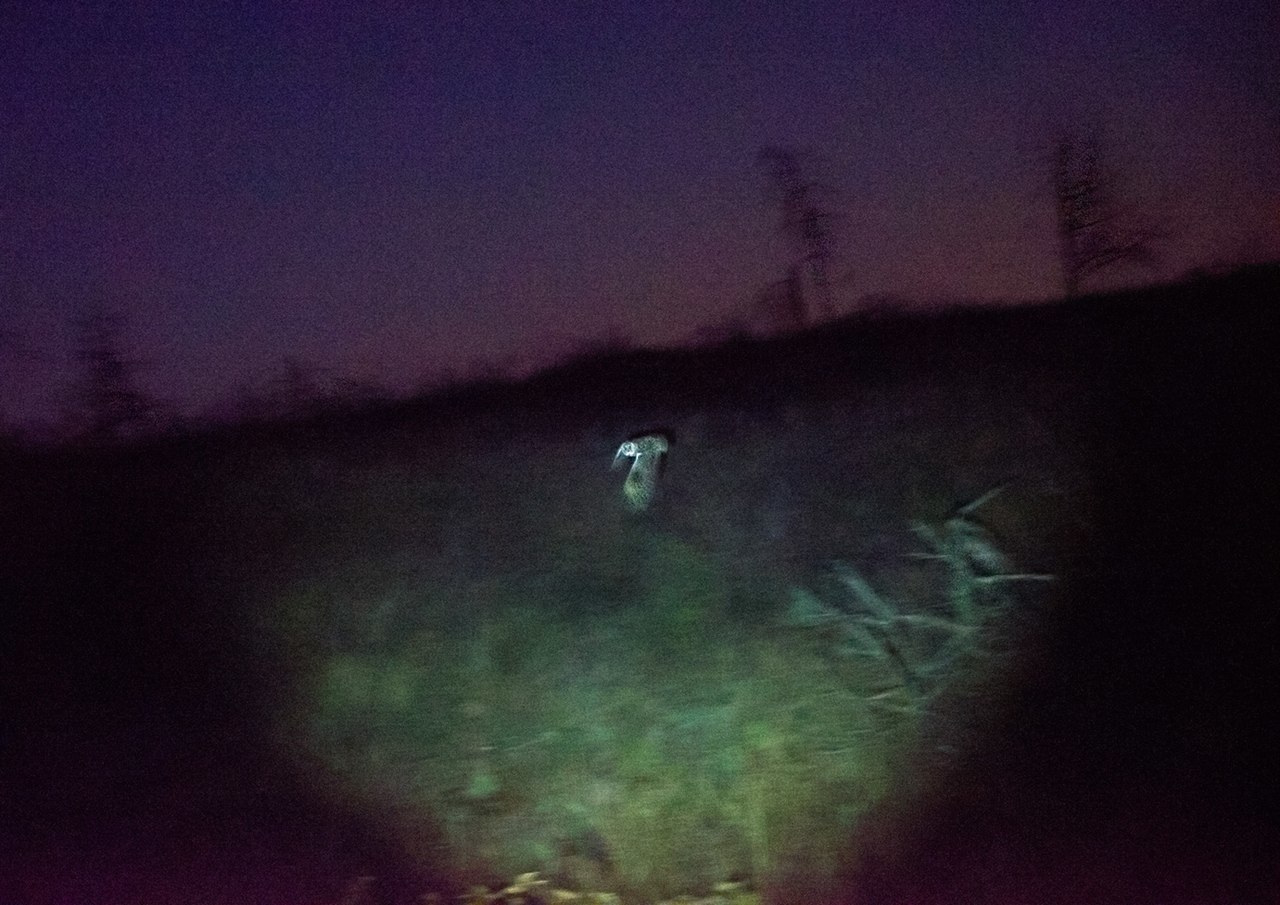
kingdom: Animalia
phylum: Chordata
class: Aves
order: Strigiformes
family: Strigidae
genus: Asio
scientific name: Asio flammeus
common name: Short-eared owl
